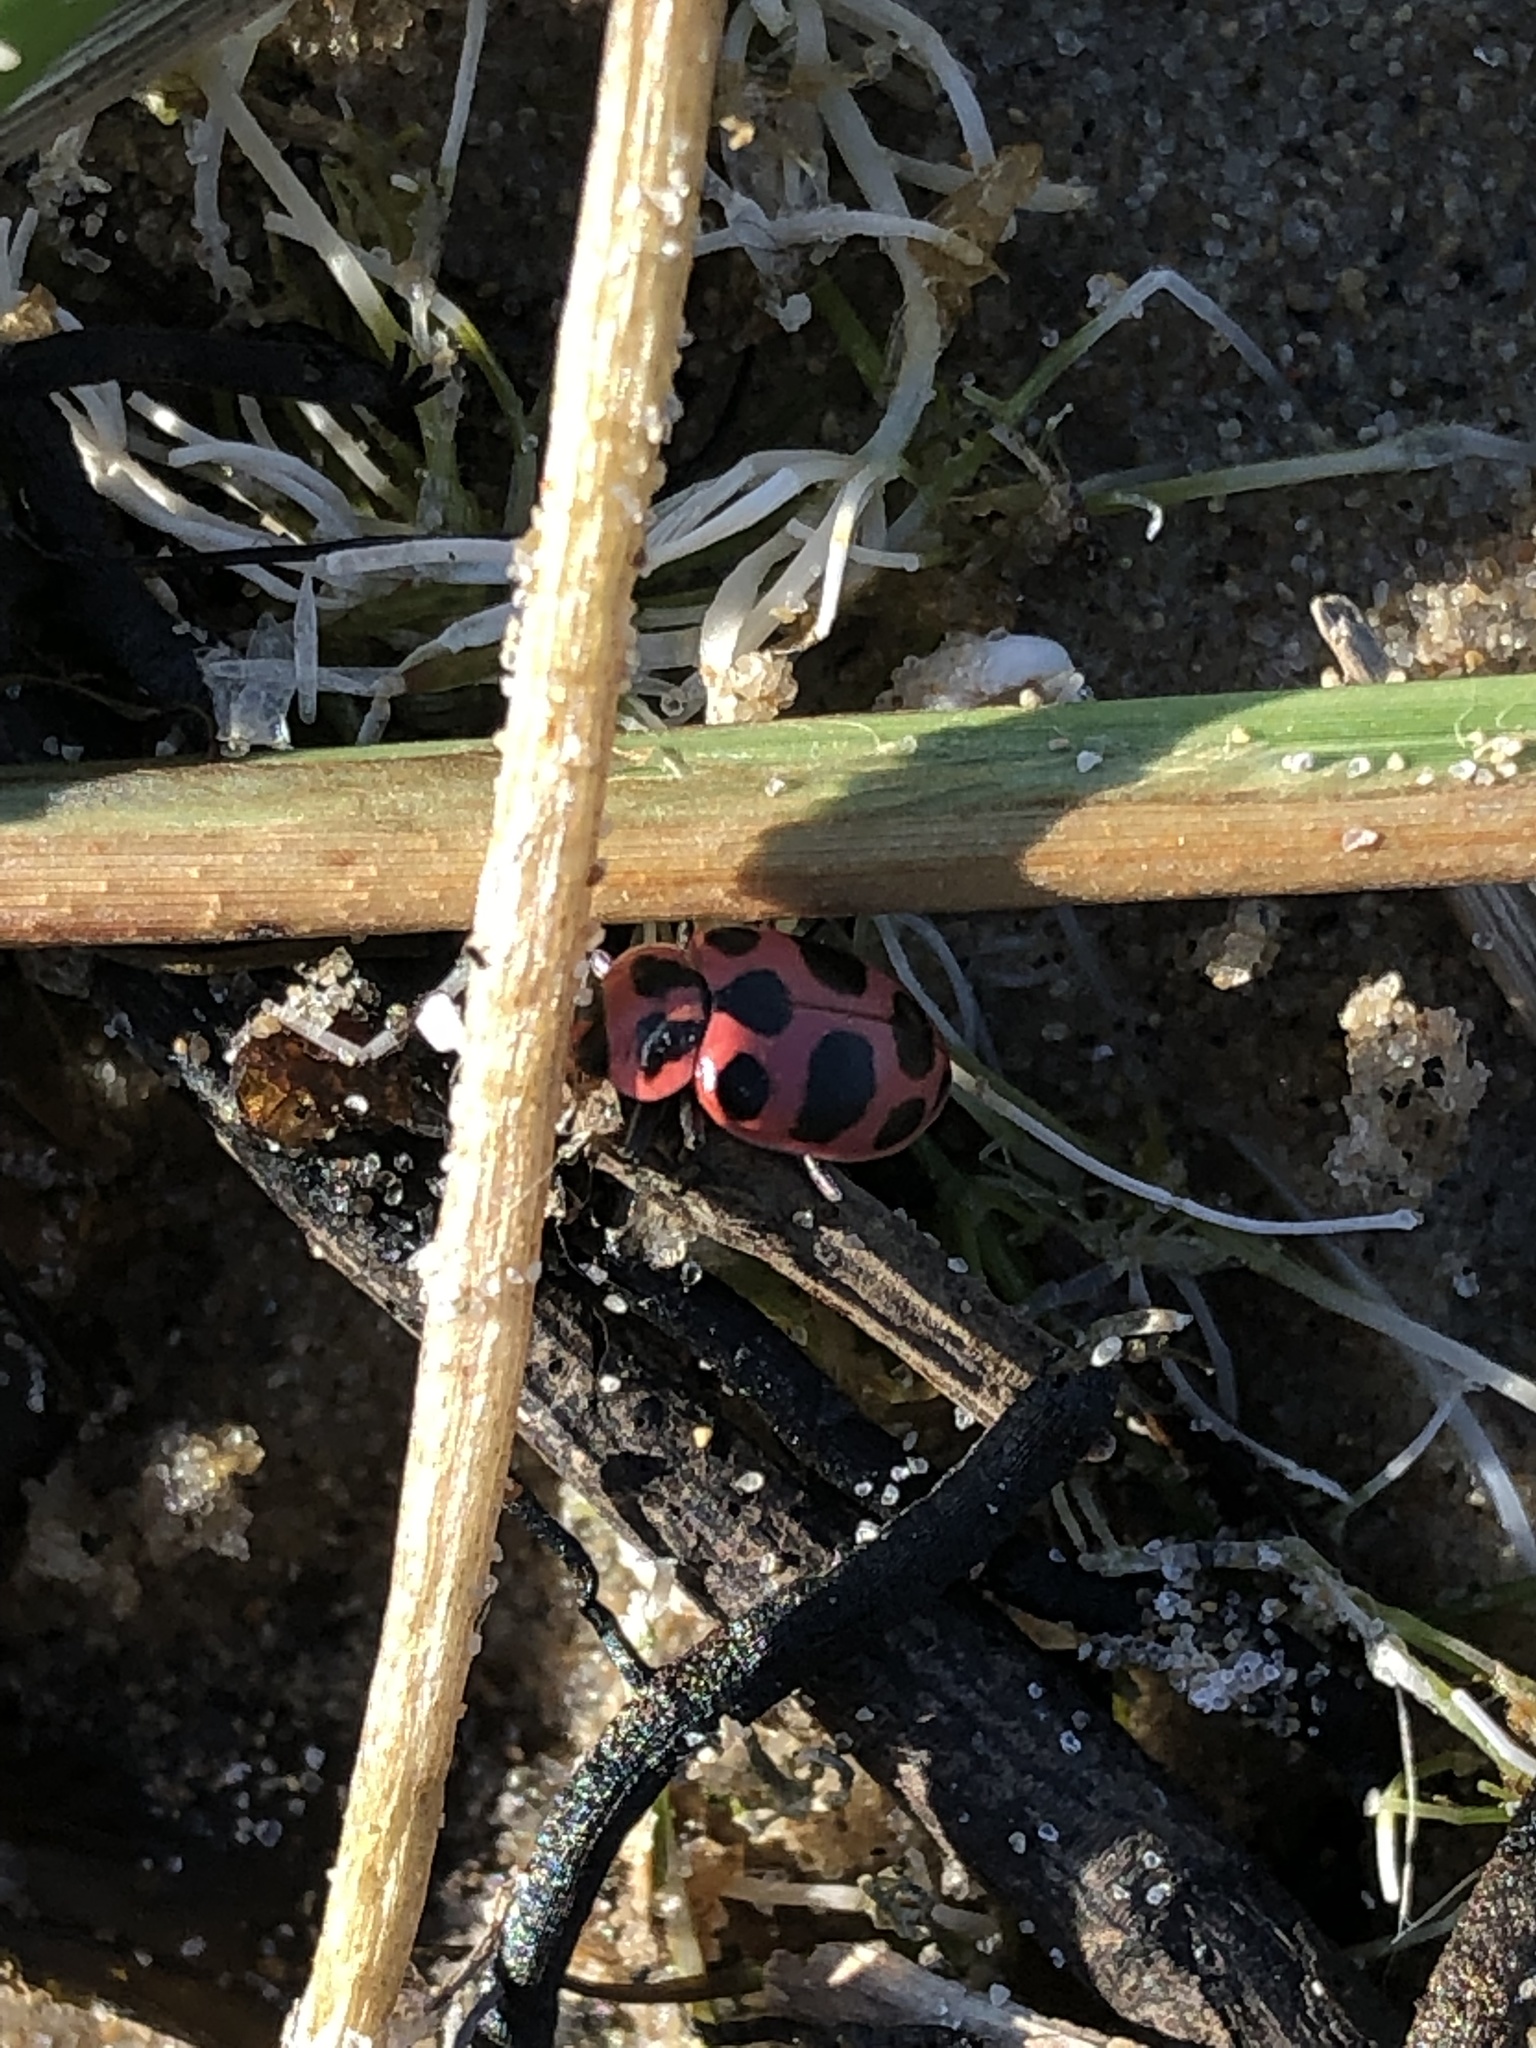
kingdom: Animalia
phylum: Arthropoda
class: Insecta
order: Coleoptera
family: Coccinellidae
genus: Coleomegilla
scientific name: Coleomegilla maculata
